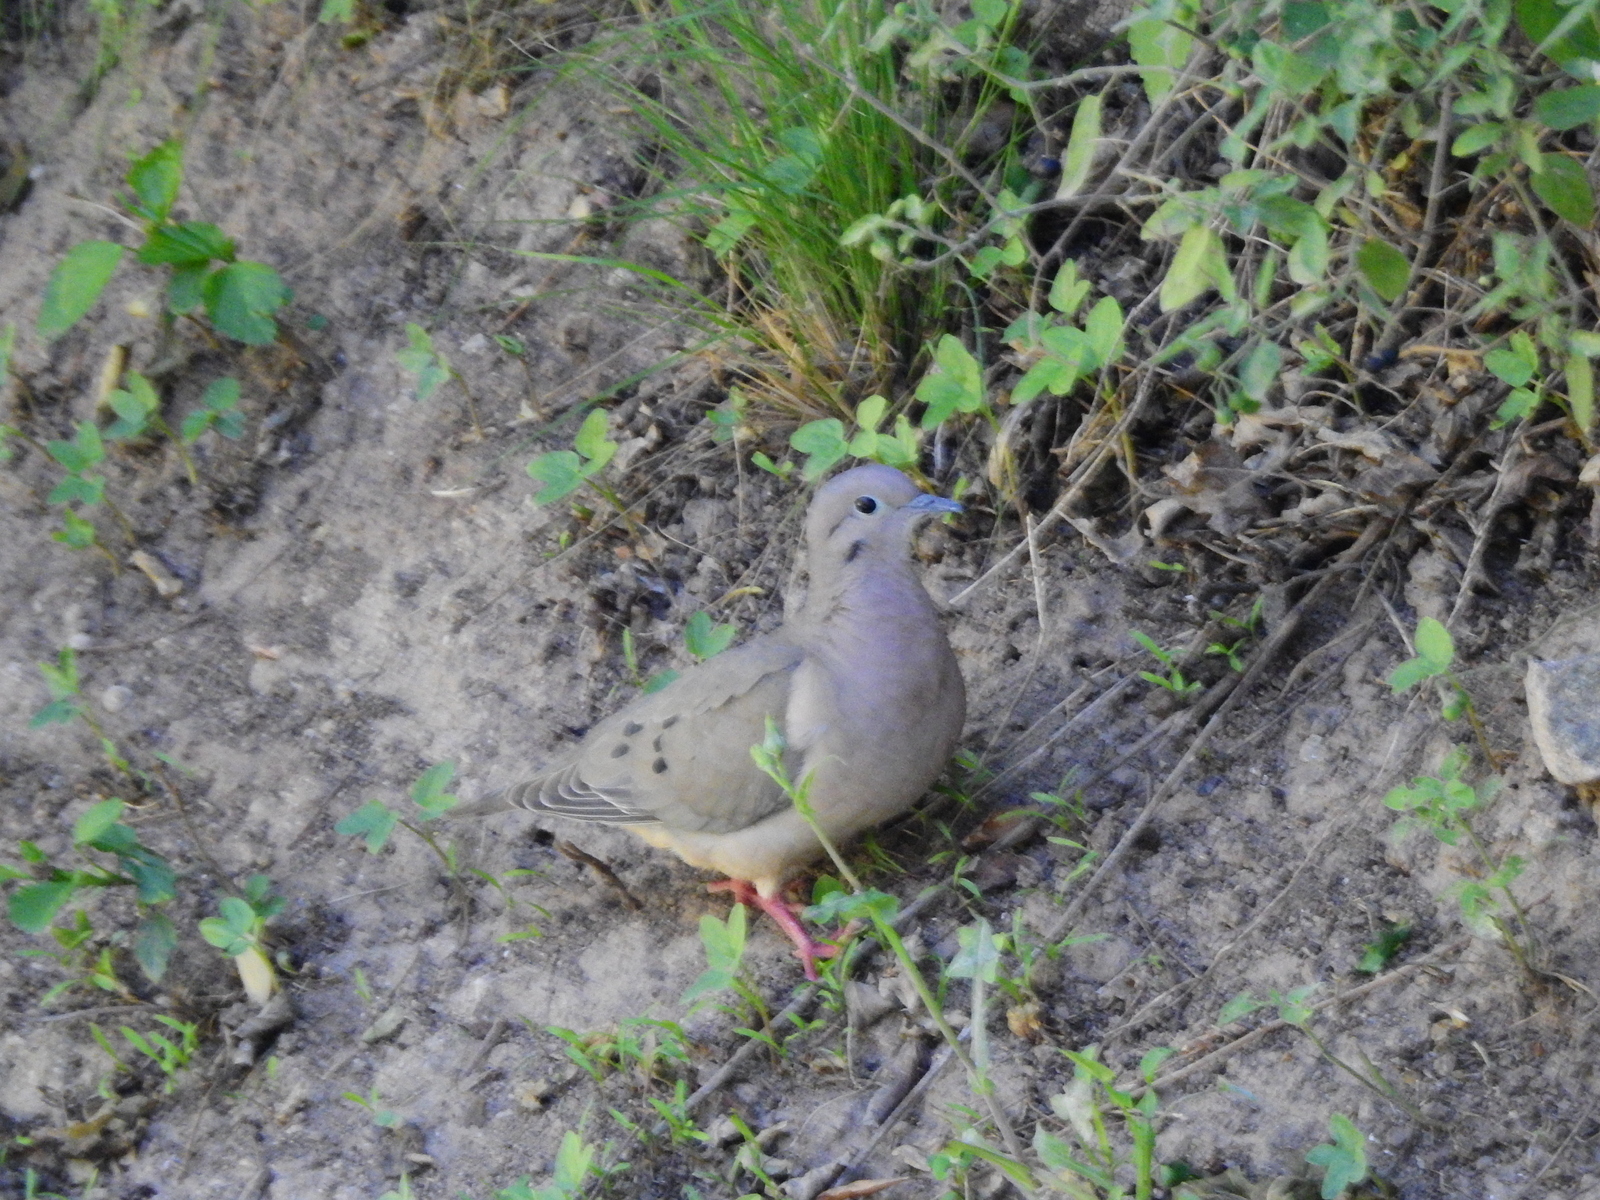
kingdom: Animalia
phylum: Chordata
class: Aves
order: Columbiformes
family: Columbidae
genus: Zenaida
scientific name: Zenaida auriculata
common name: Eared dove
